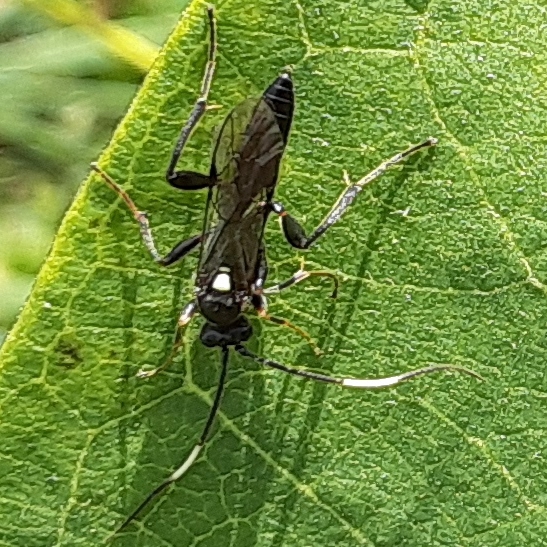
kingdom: Animalia
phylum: Arthropoda
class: Insecta
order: Hymenoptera
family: Ichneumonidae
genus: Vulgichneumon
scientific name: Vulgichneumon brevicinctor
